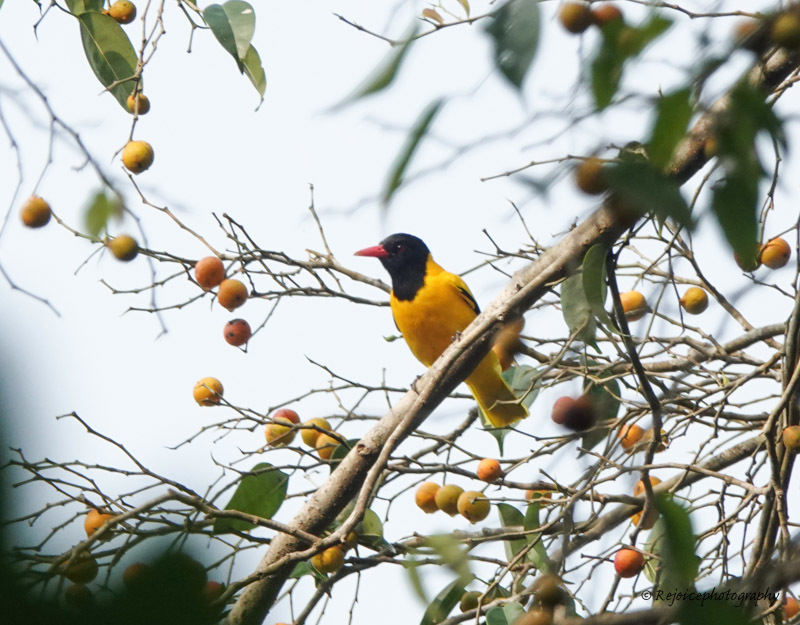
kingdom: Animalia
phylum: Chordata
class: Aves
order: Passeriformes
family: Oriolidae
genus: Oriolus
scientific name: Oriolus xanthornus
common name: Black-hooded oriole
